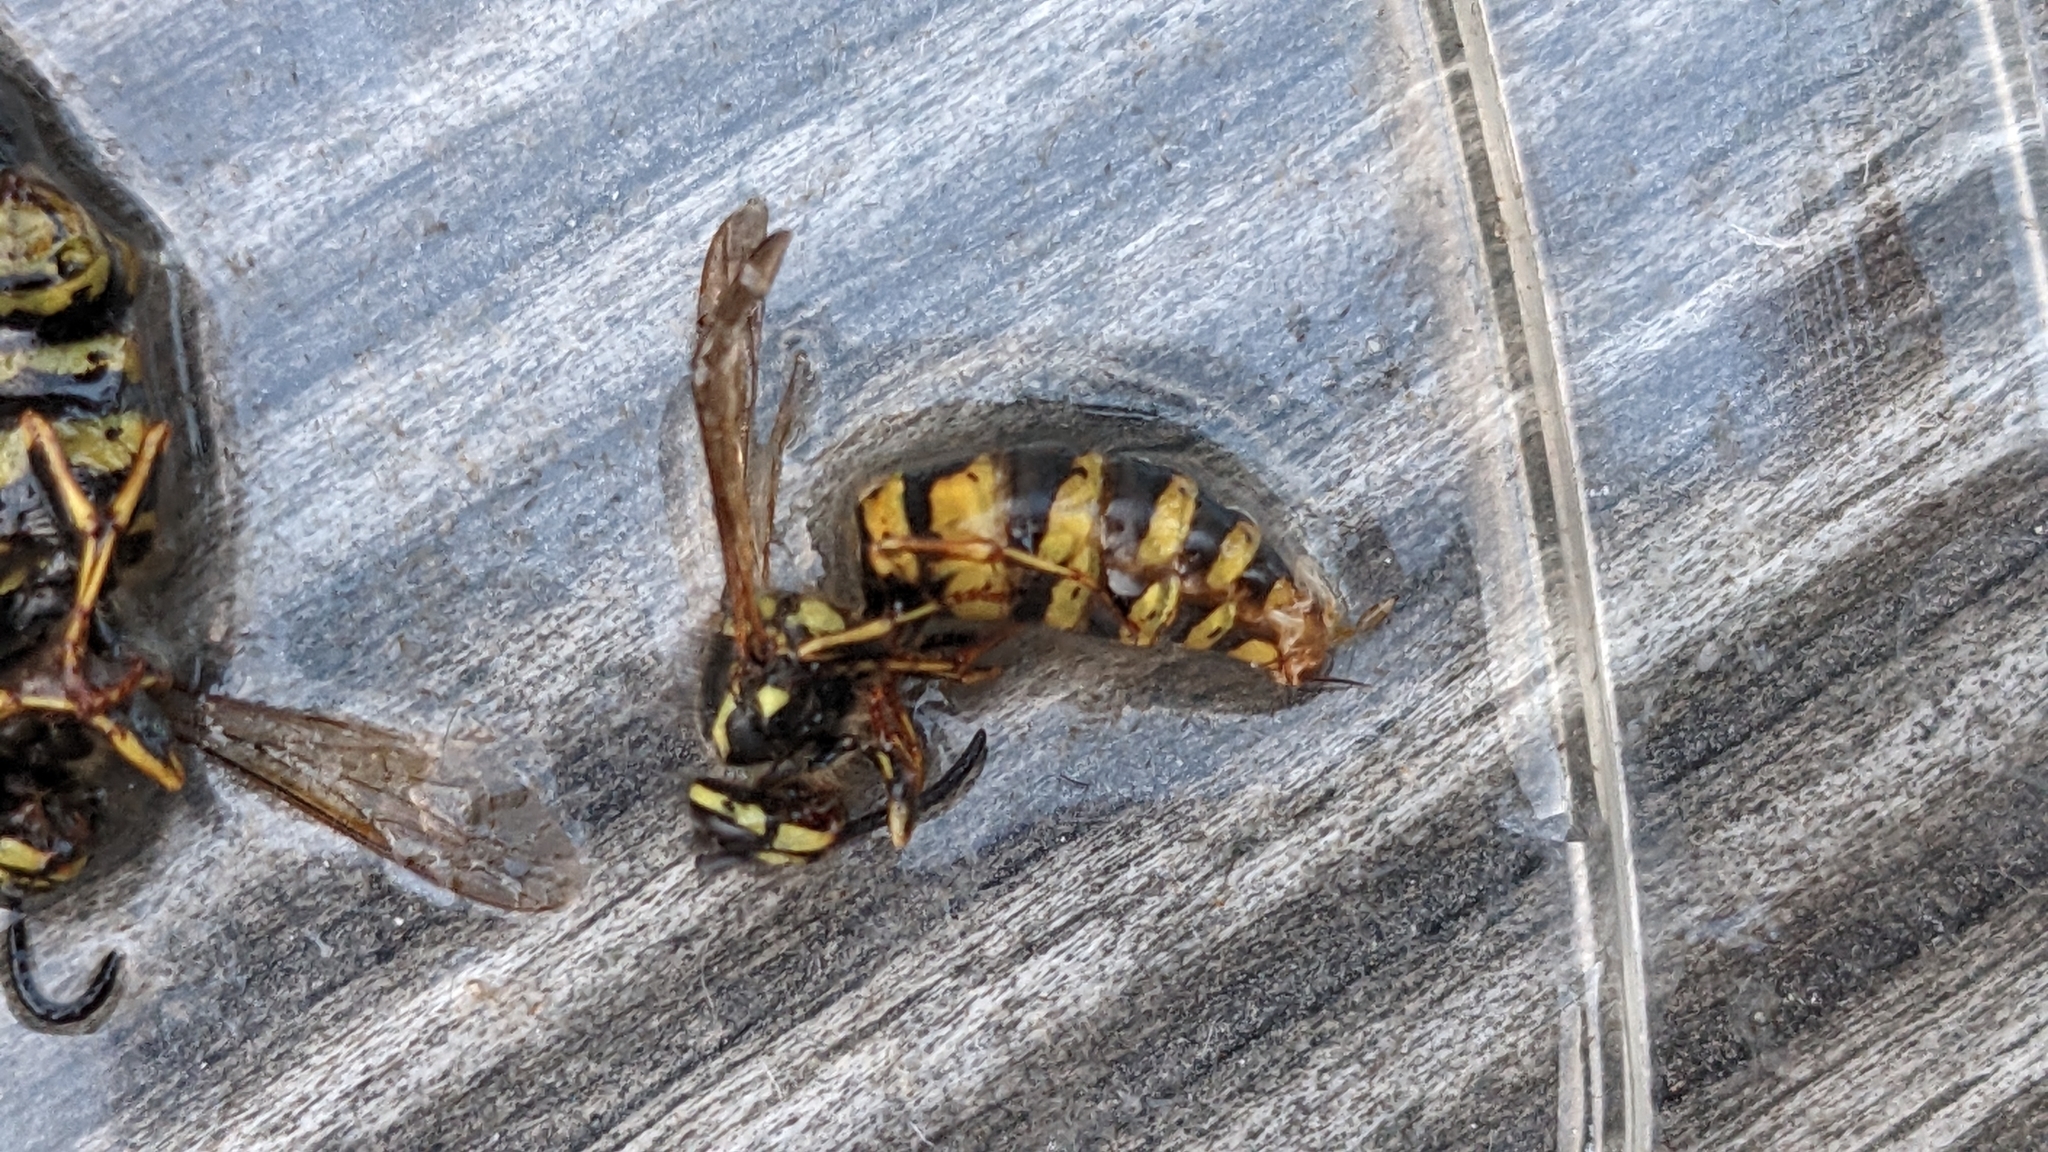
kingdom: Animalia
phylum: Arthropoda
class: Insecta
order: Hymenoptera
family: Vespidae
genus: Vespula
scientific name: Vespula vulgaris
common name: Common wasp
